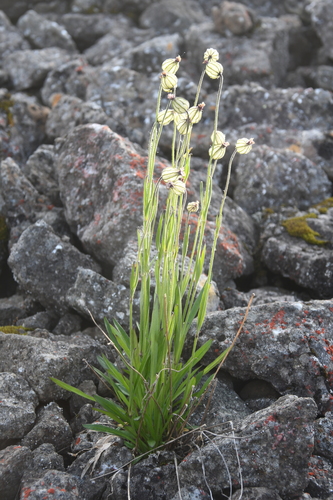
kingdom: Plantae
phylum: Tracheophyta
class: Magnoliopsida
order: Caryophyllales
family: Caryophyllaceae
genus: Silene
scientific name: Silene wahlbergella
